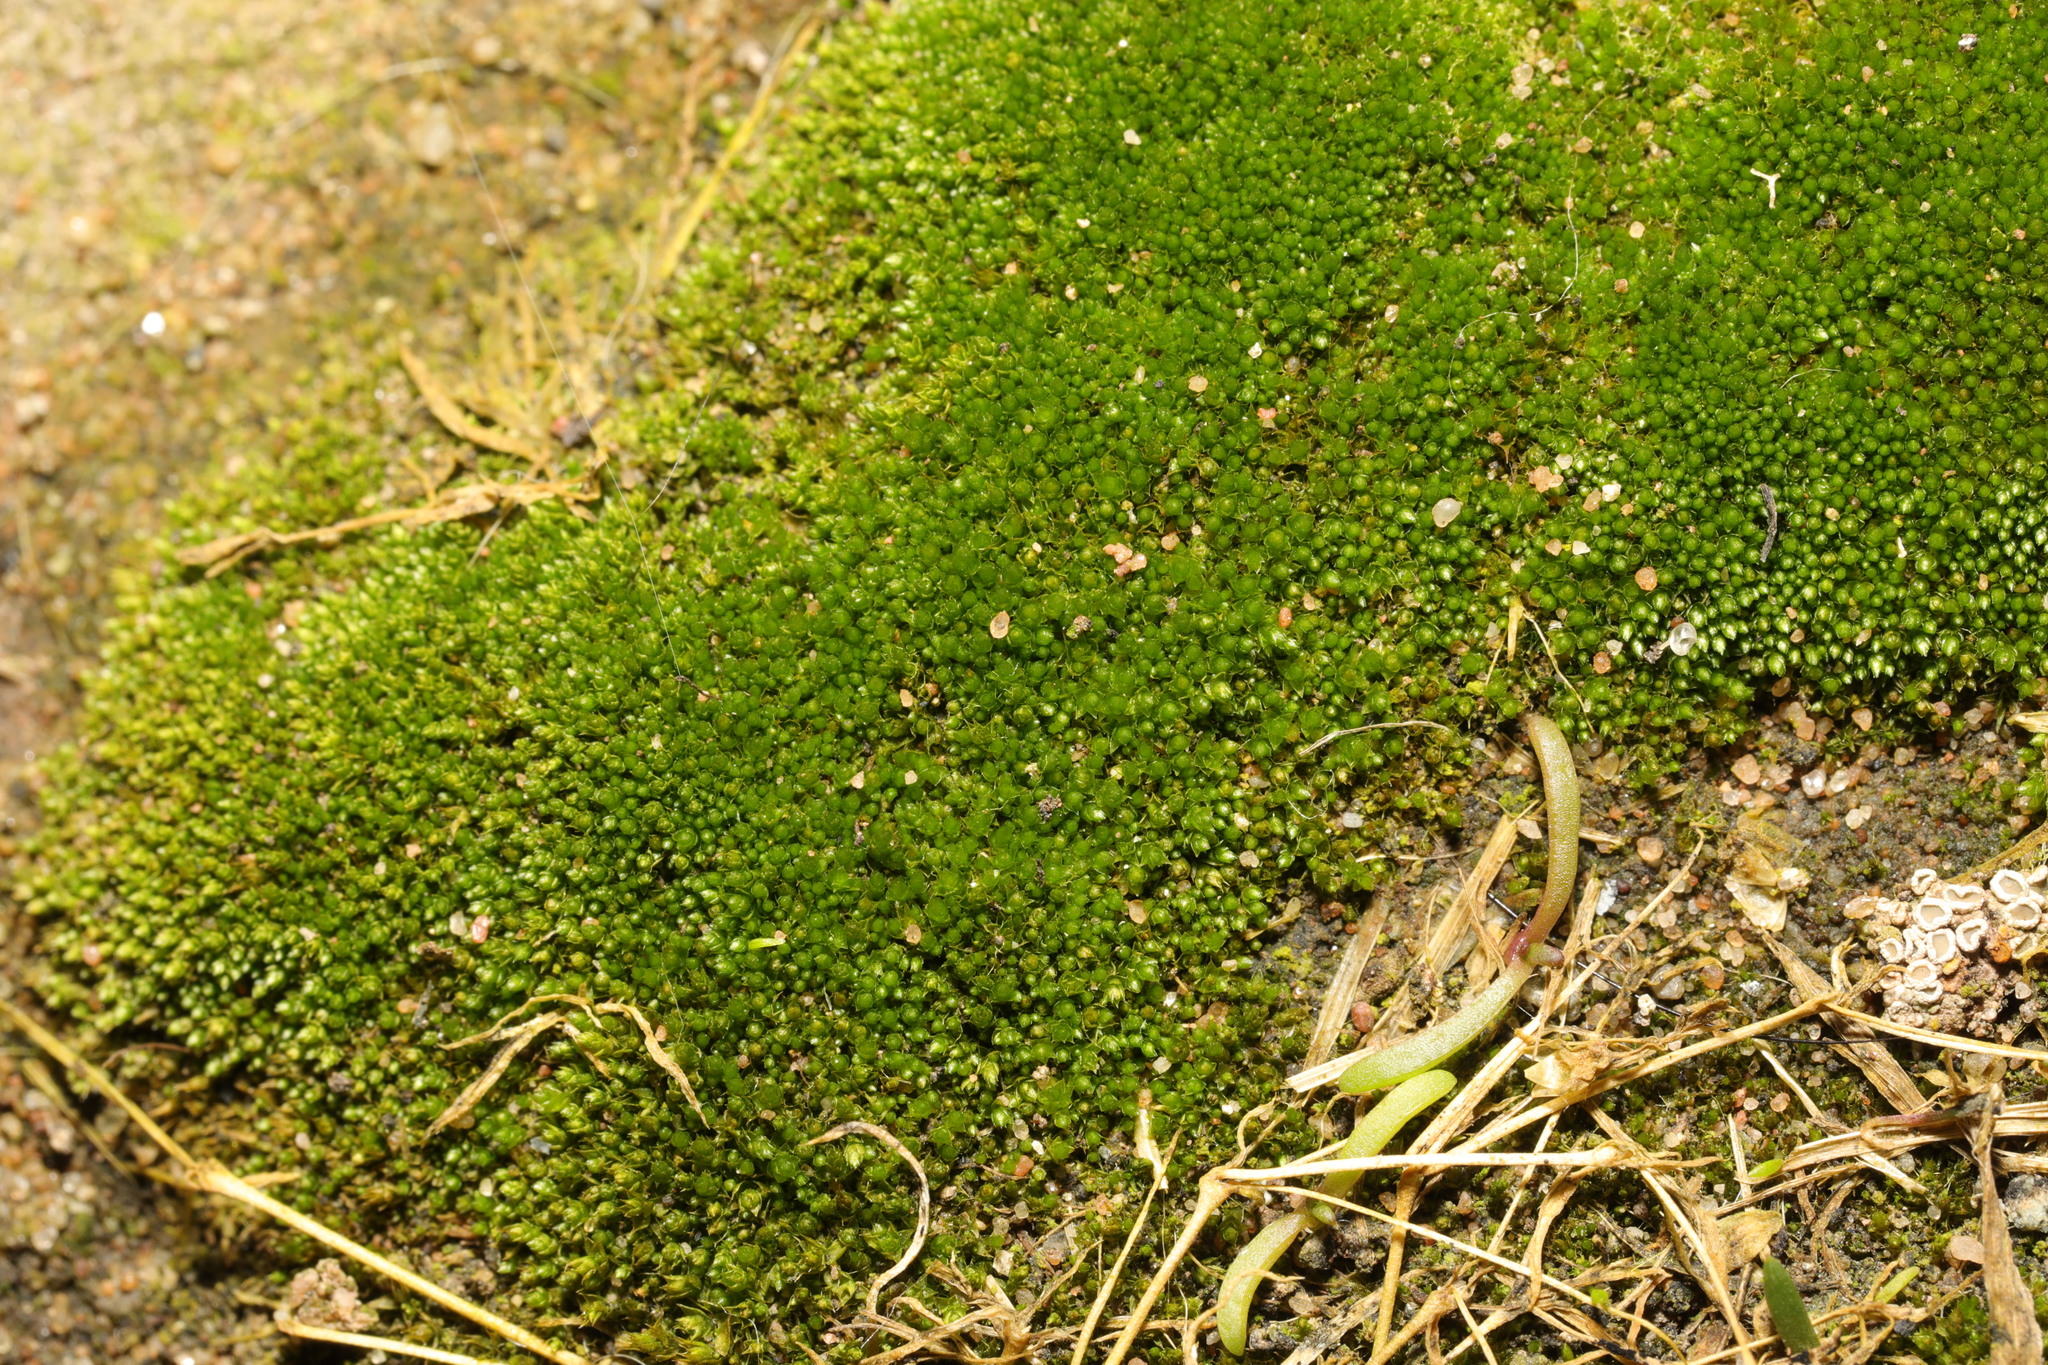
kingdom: Plantae
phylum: Bryophyta
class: Bryopsida
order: Bryales
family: Bryaceae
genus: Bryum
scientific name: Bryum argenteum
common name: Silver-moss
